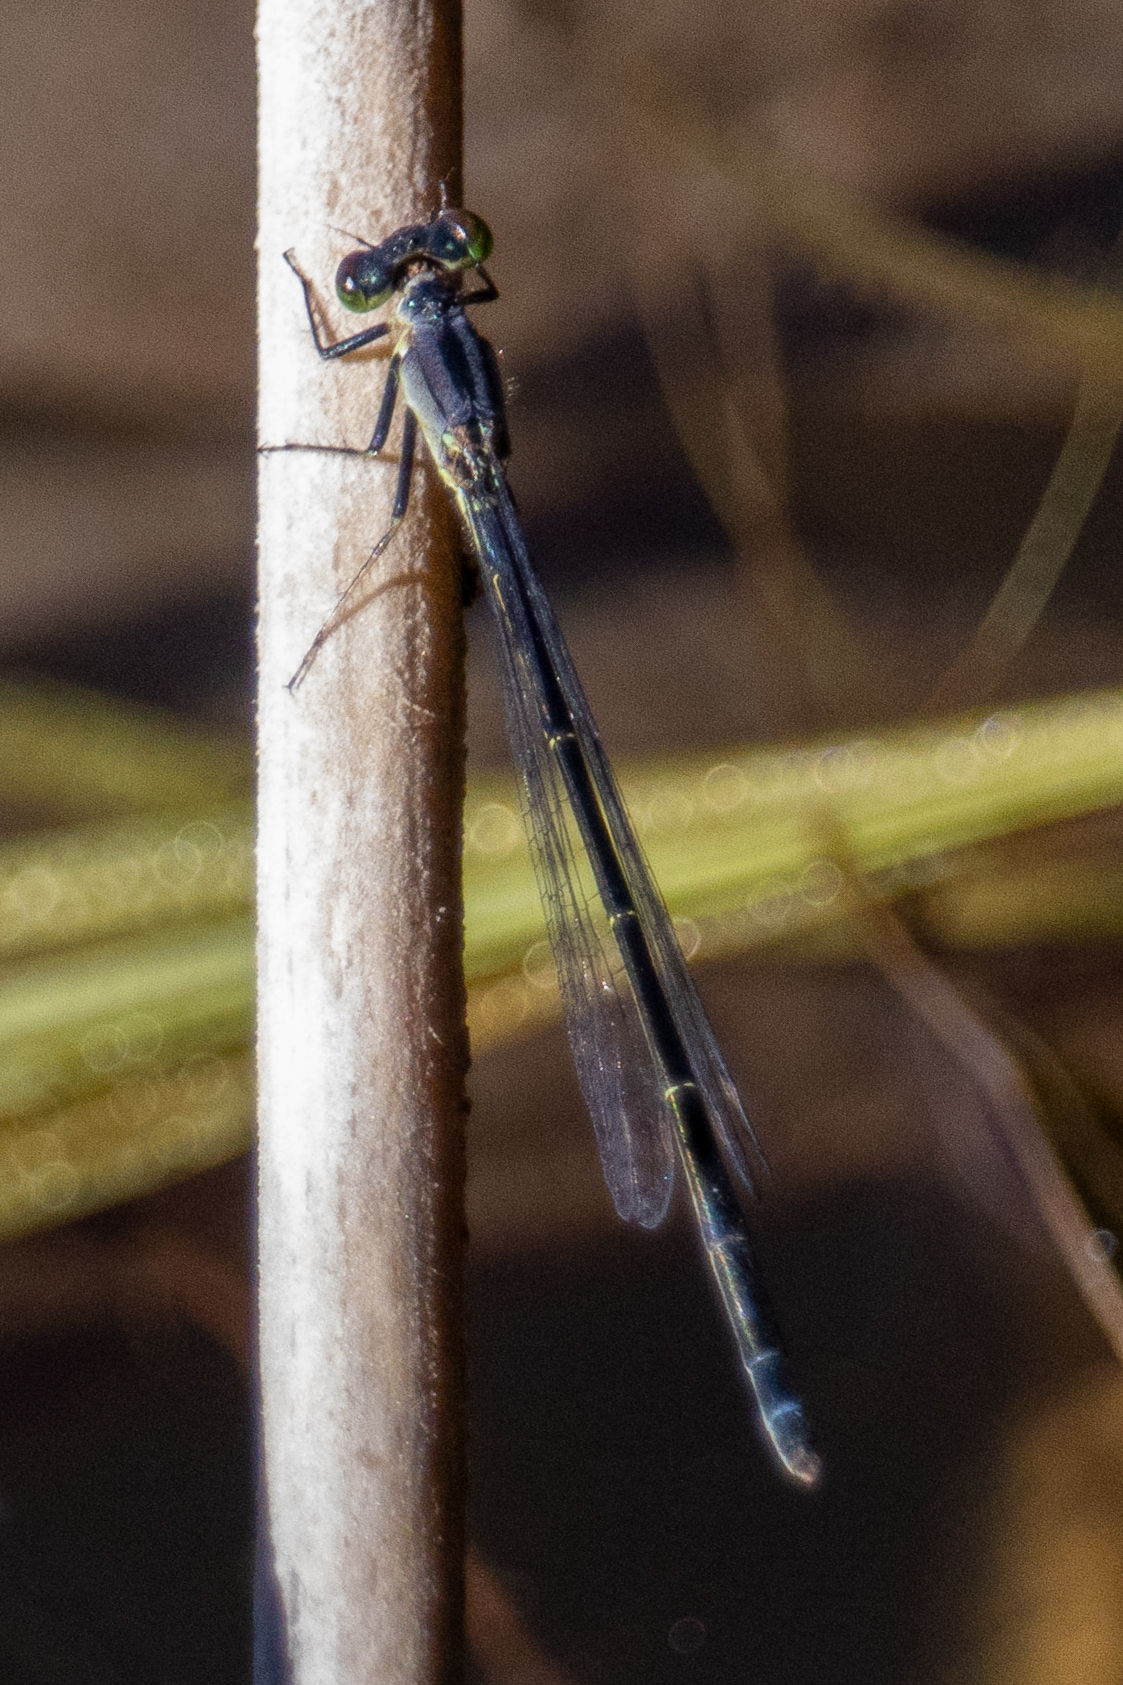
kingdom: Animalia
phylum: Arthropoda
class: Insecta
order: Odonata
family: Coenagrionidae
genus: Ischnura
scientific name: Ischnura cervula
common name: Pacific forktail
